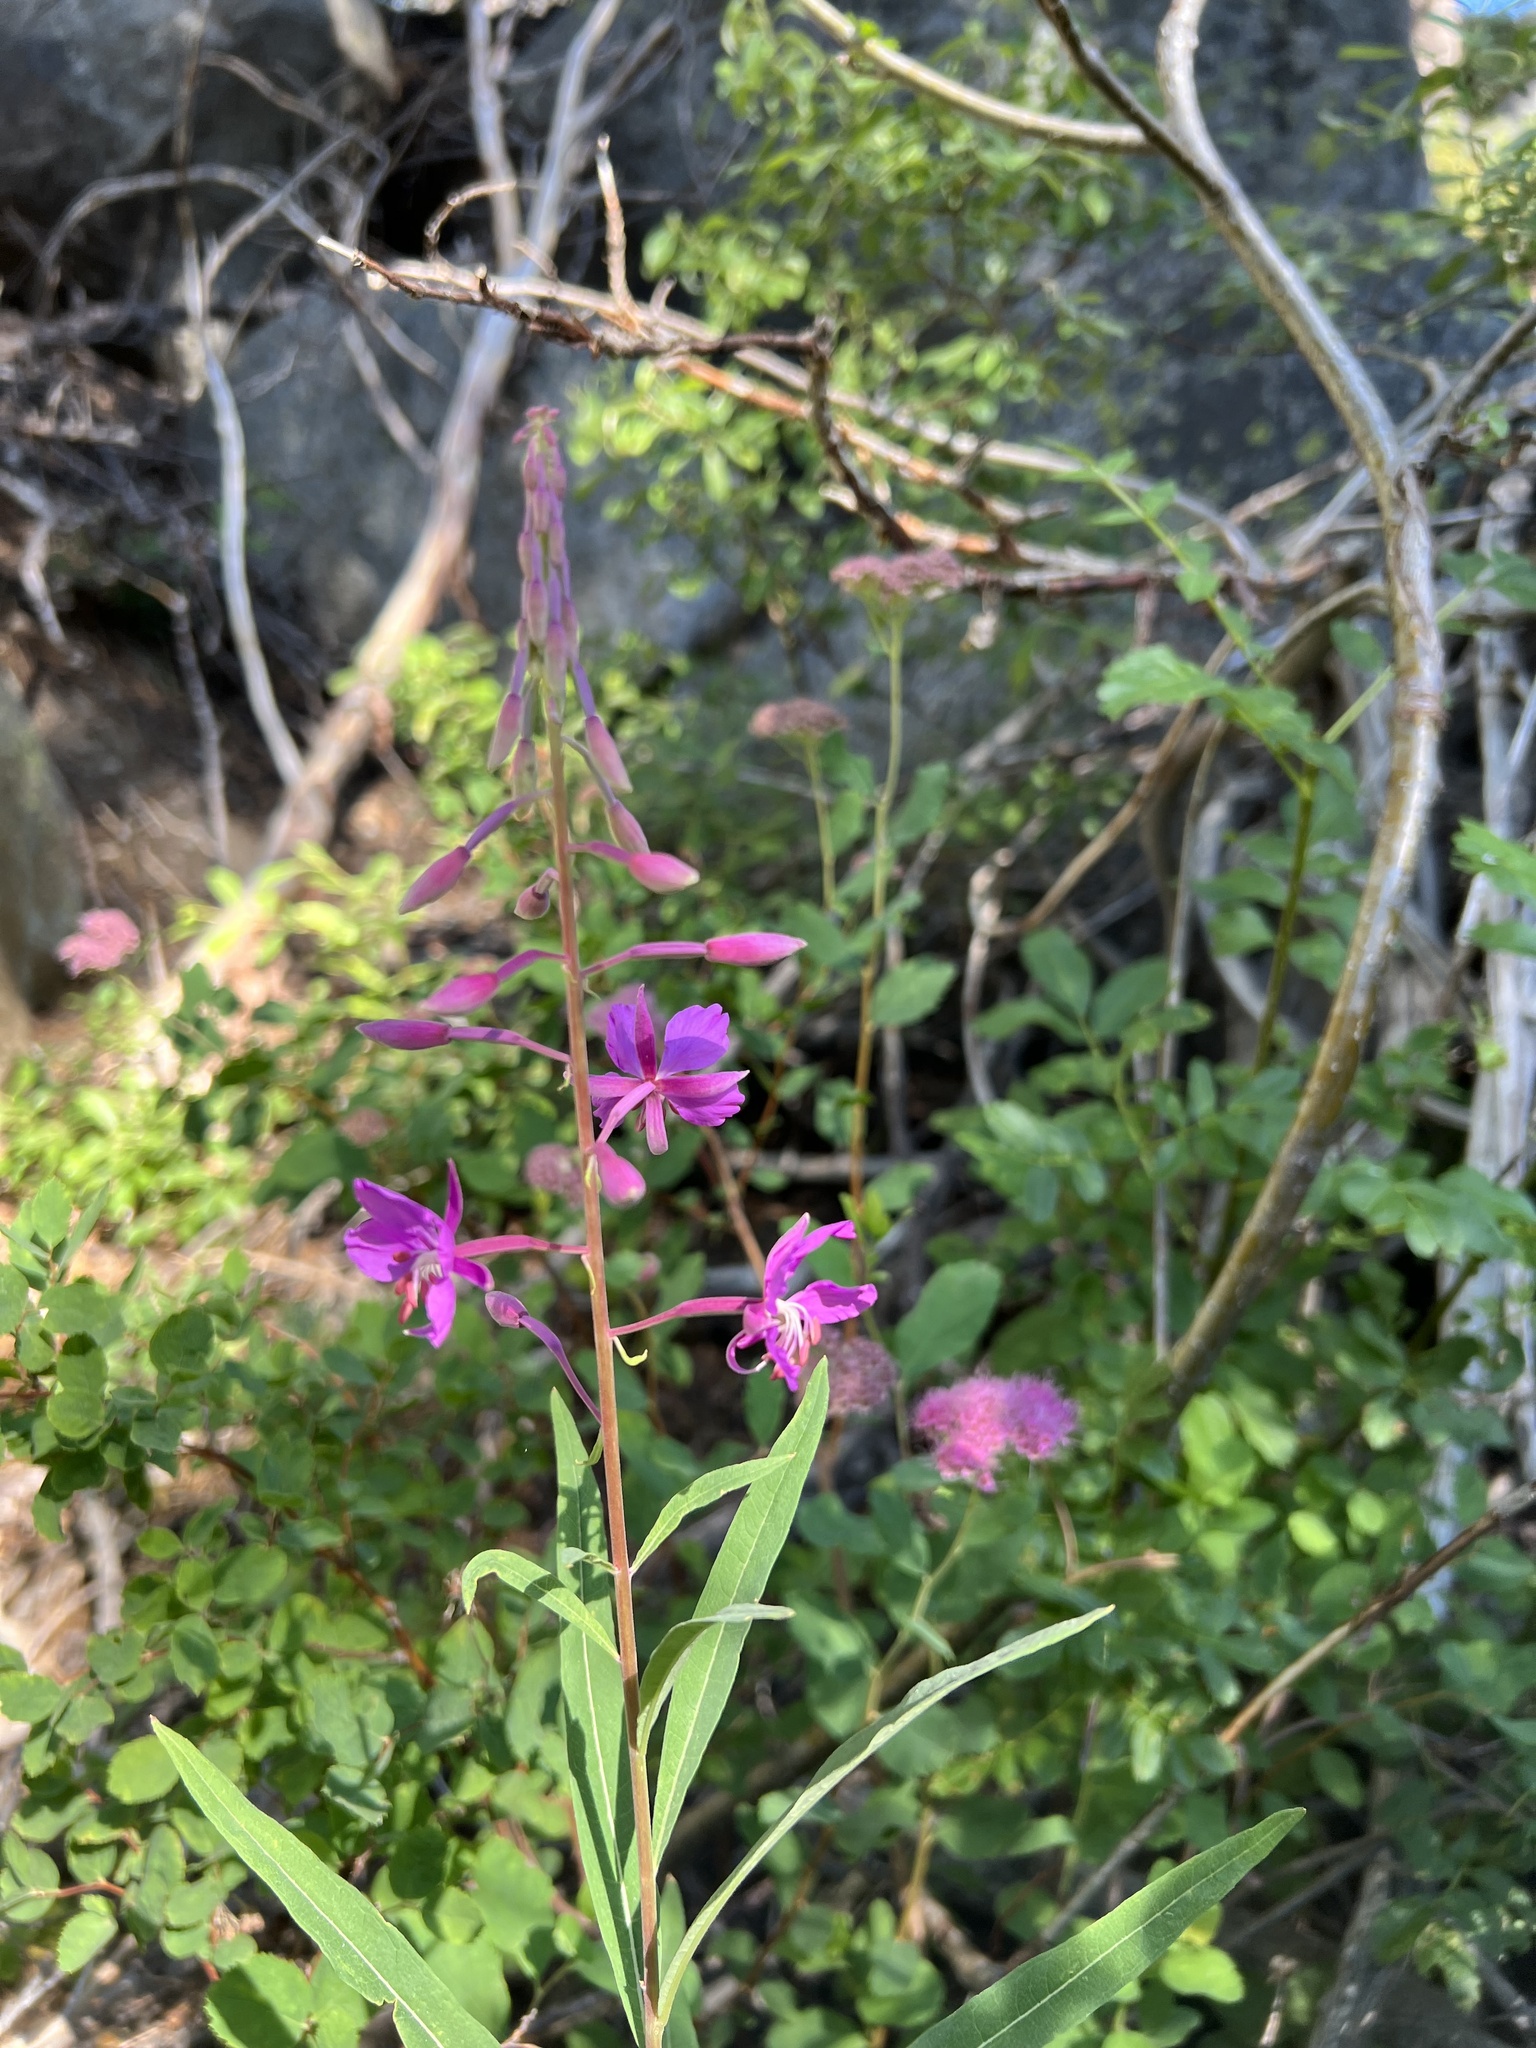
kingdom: Plantae
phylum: Tracheophyta
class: Magnoliopsida
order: Myrtales
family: Onagraceae
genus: Chamaenerion
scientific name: Chamaenerion angustifolium
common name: Fireweed
